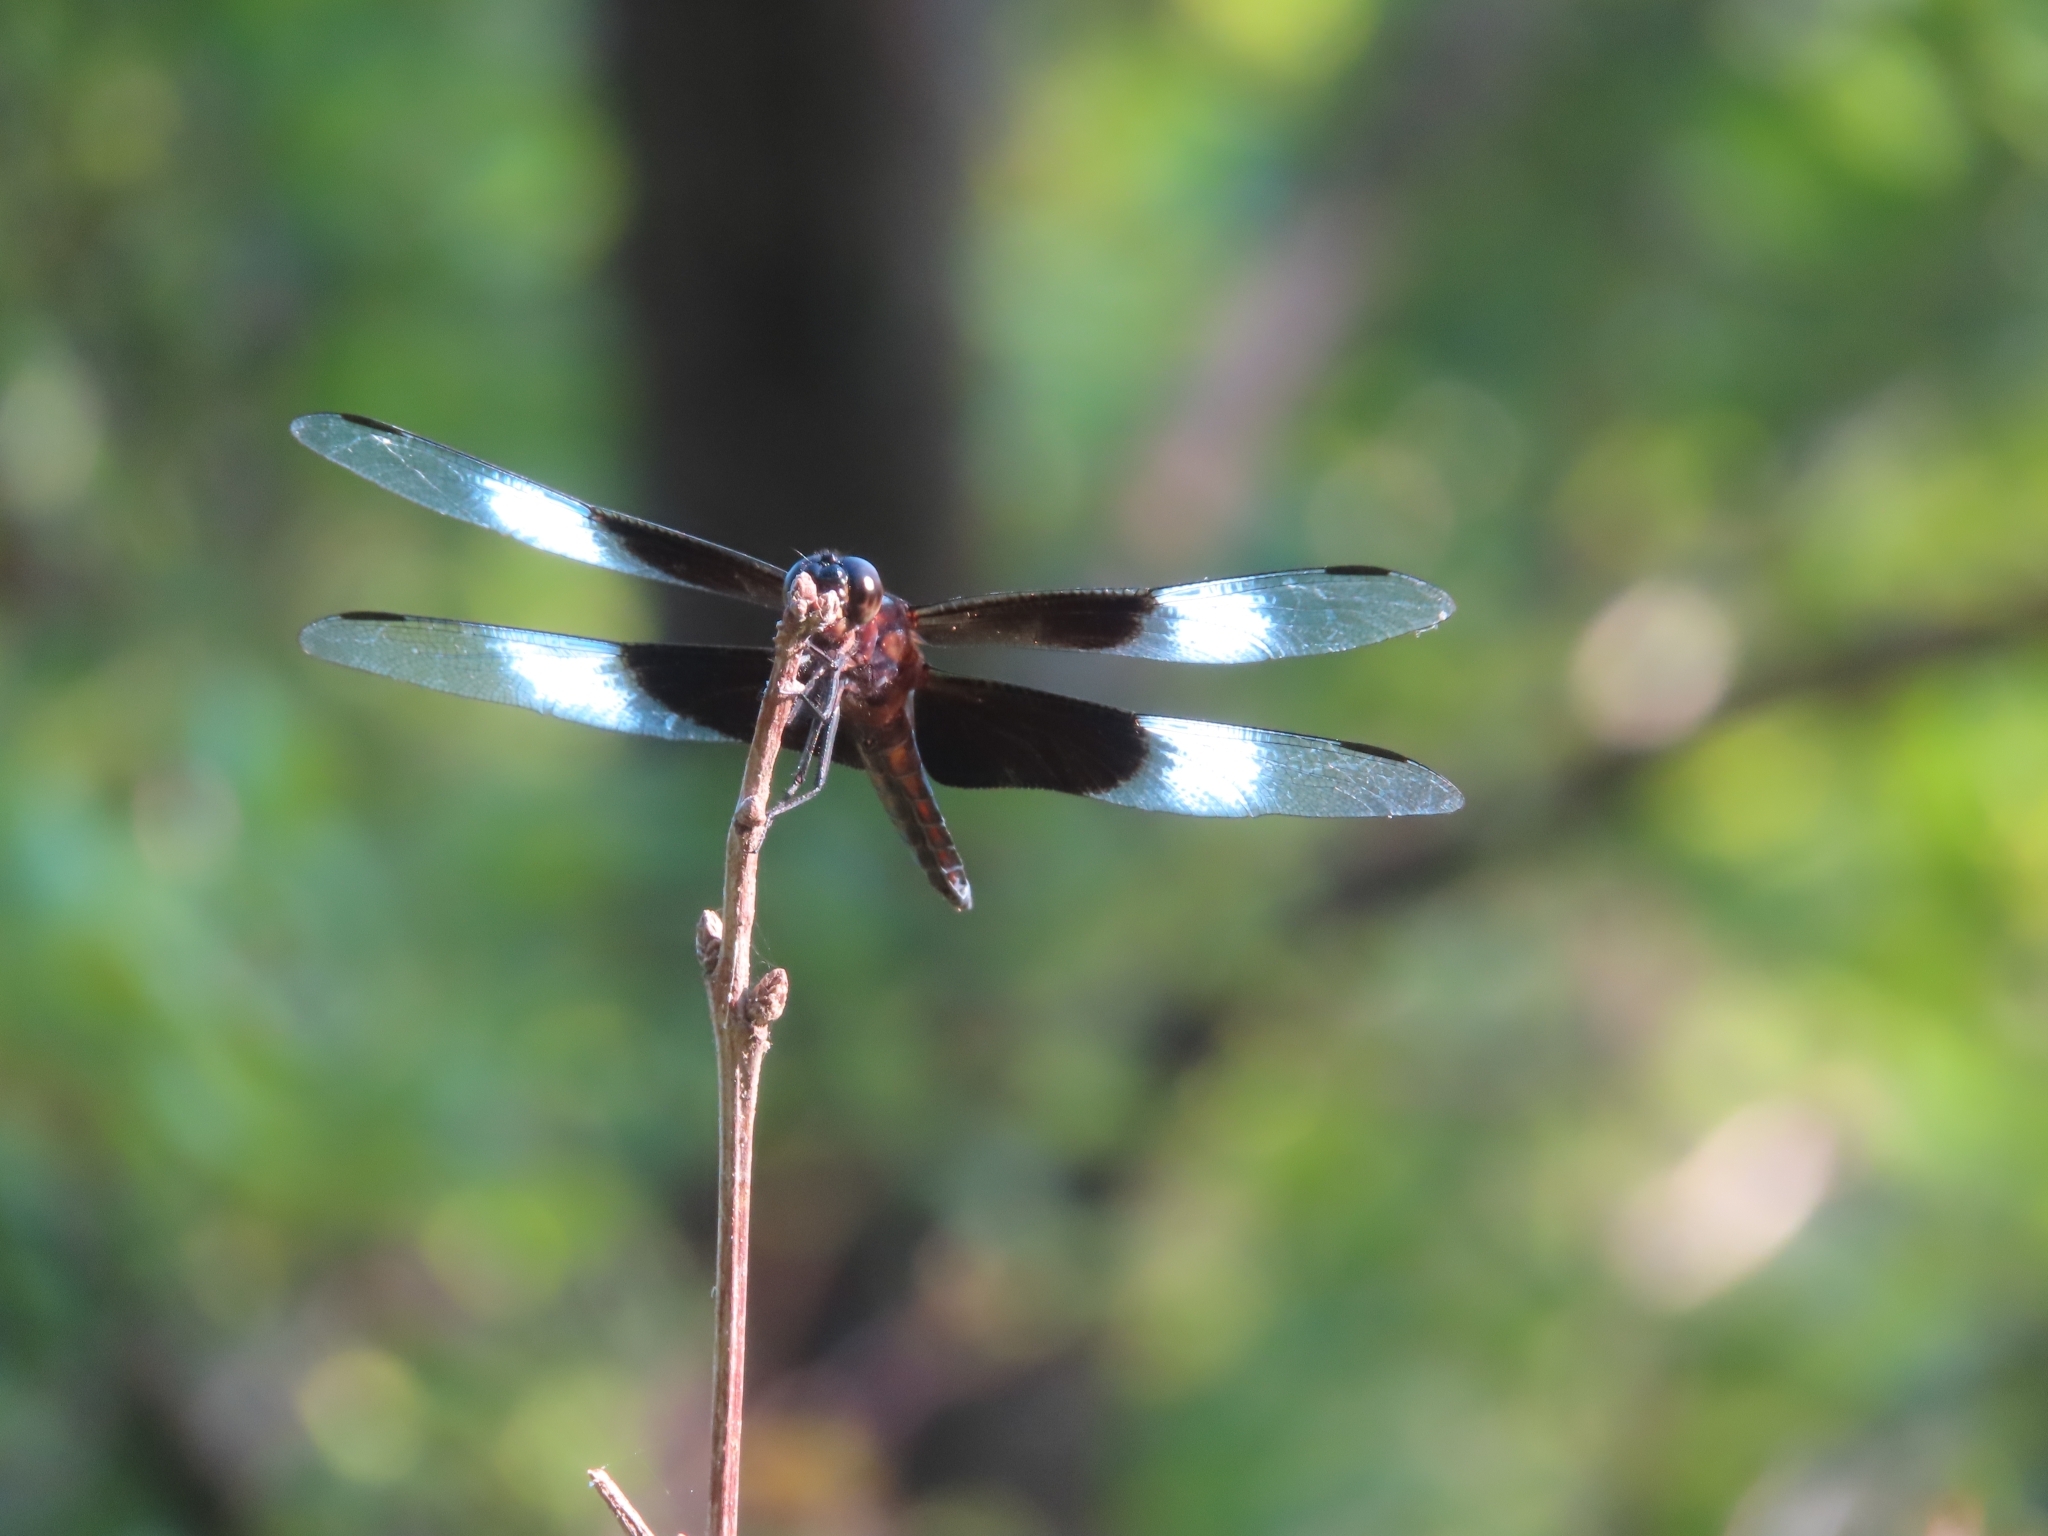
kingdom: Animalia
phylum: Arthropoda
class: Insecta
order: Odonata
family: Libellulidae
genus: Libellula
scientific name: Libellula luctuosa
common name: Widow skimmer
